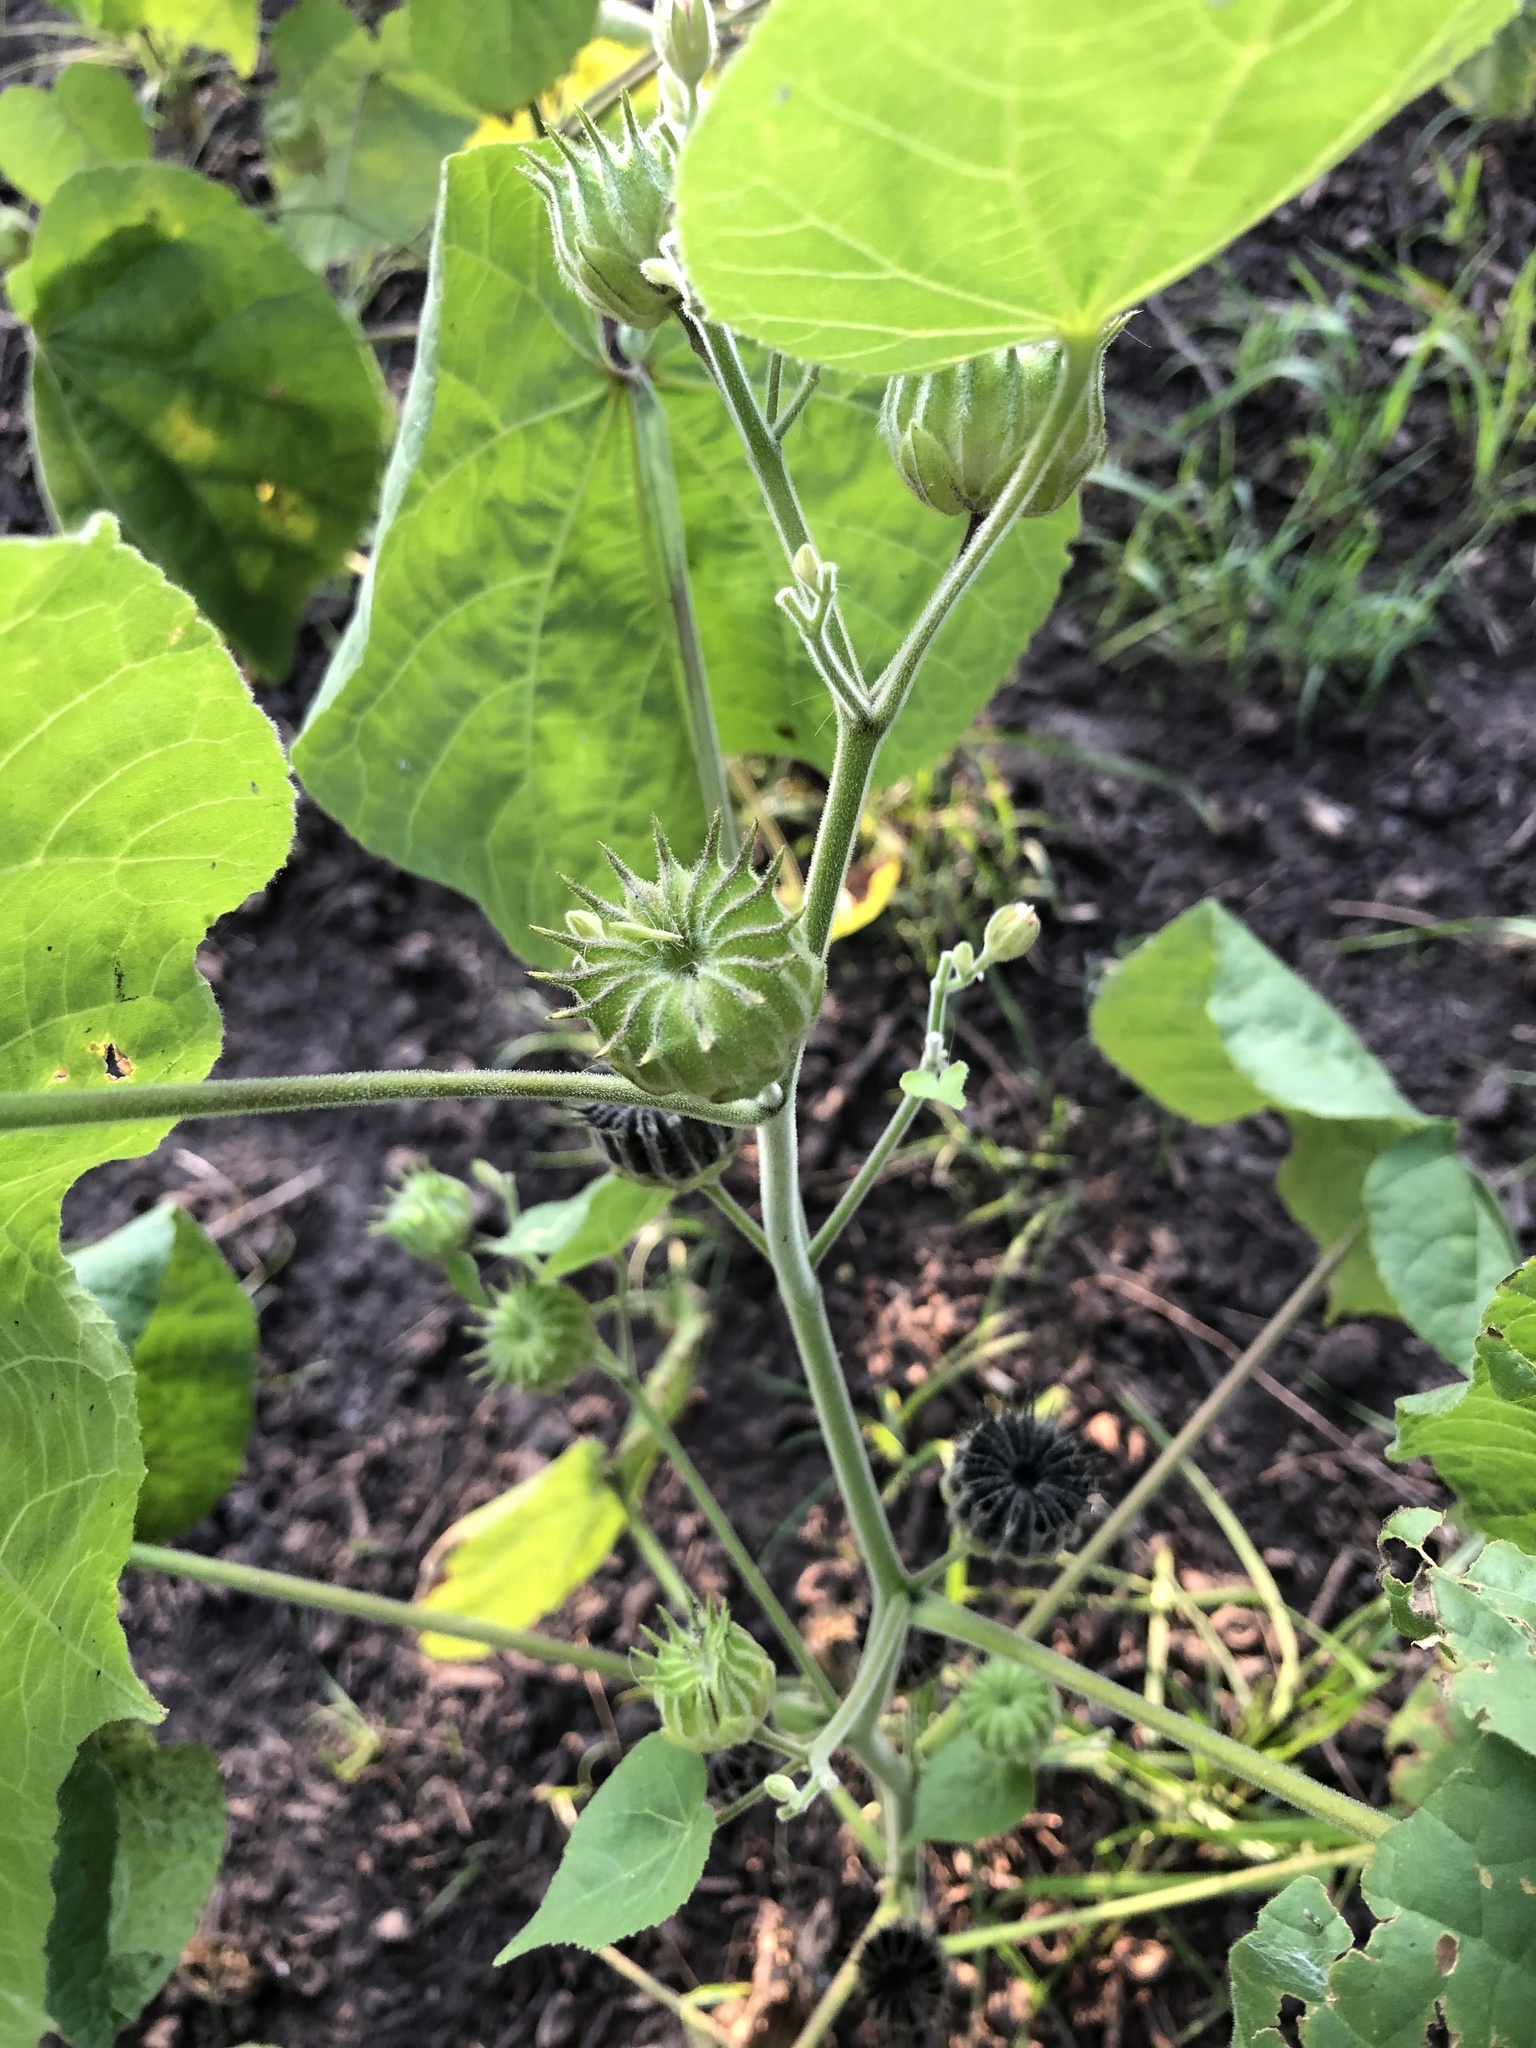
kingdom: Plantae
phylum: Tracheophyta
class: Magnoliopsida
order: Malvales
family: Malvaceae
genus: Abutilon
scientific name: Abutilon theophrasti
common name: Velvetleaf
